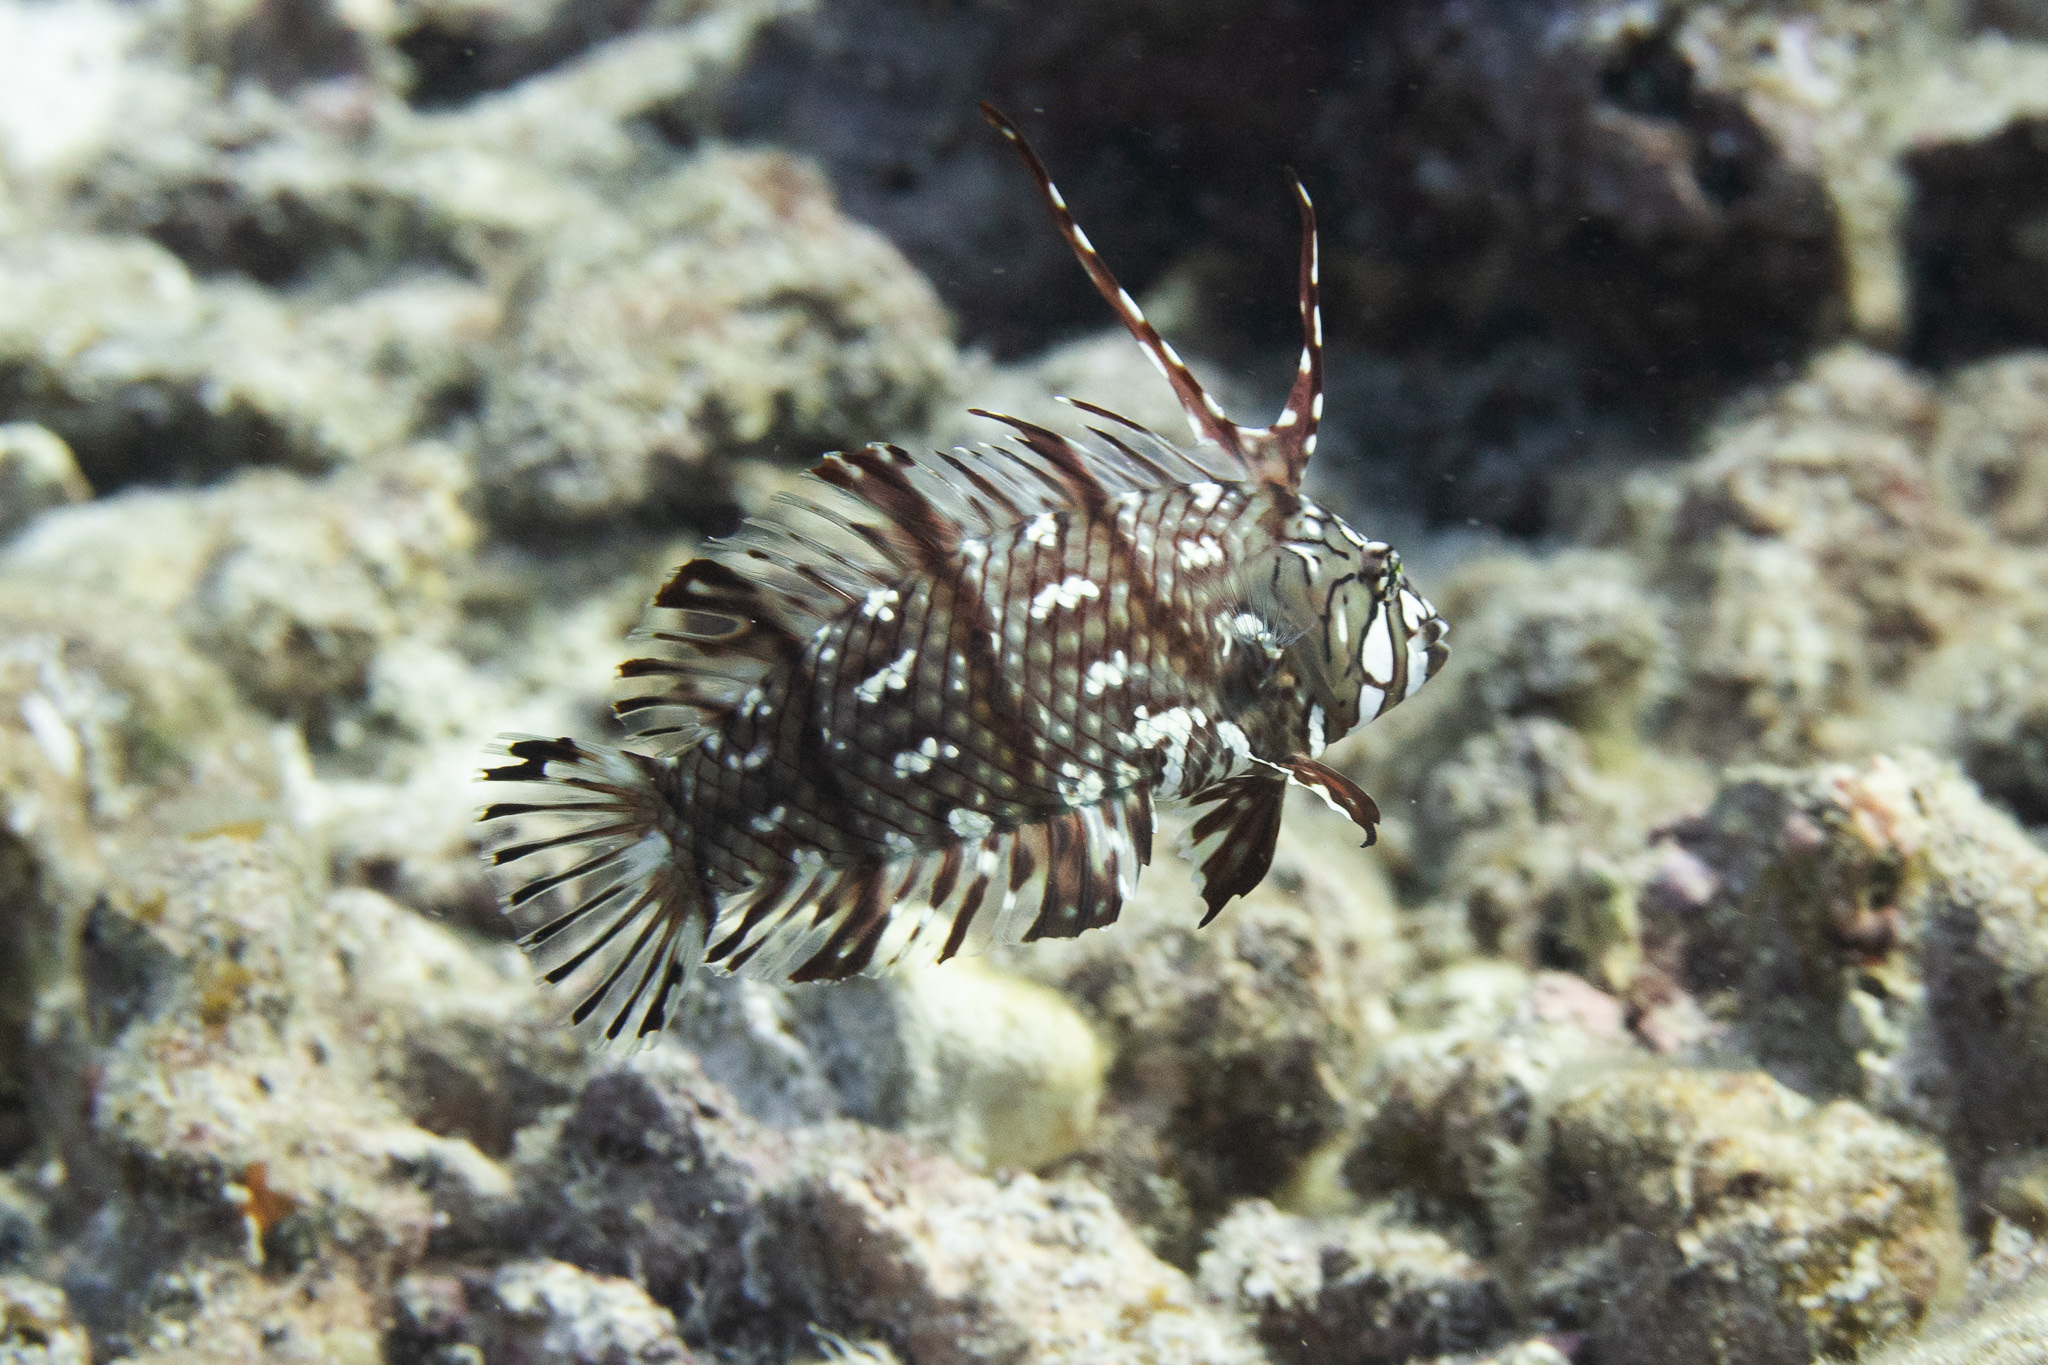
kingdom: Animalia
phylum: Chordata
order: Perciformes
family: Labridae
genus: Novaculichthys
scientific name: Novaculichthys taeniourus
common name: Rockmover wrasse
